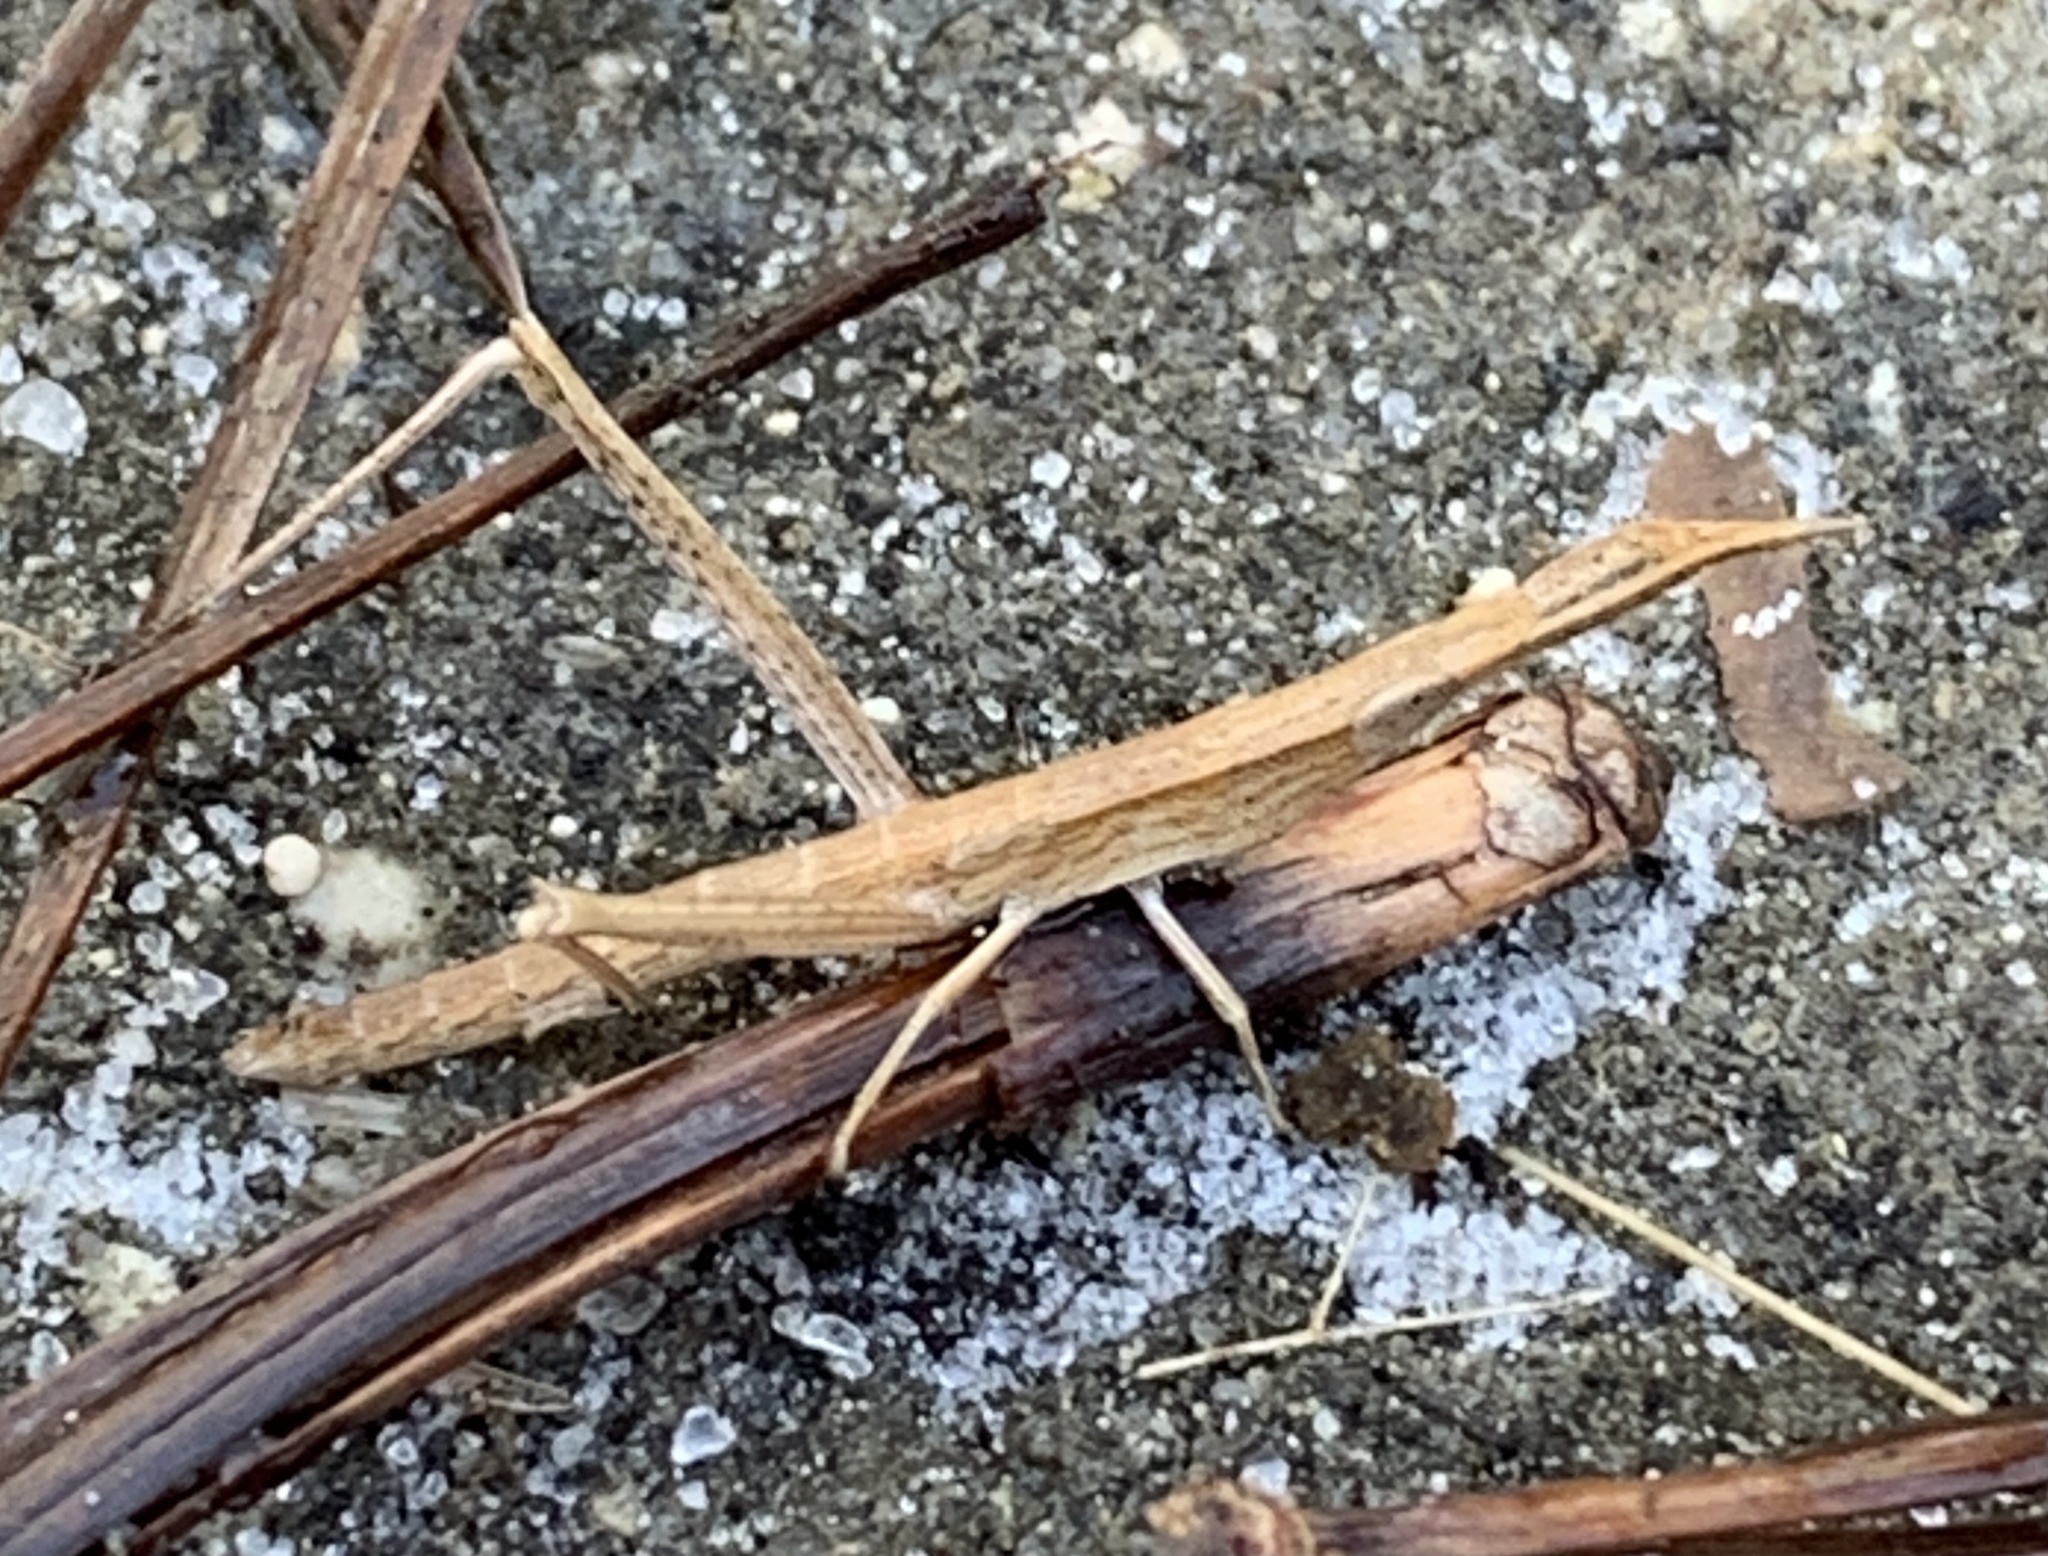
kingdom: Animalia
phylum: Arthropoda
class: Insecta
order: Orthoptera
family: Acrididae
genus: Achurum
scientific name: Achurum carinatum
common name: Long-headed toothpick grasshopper
